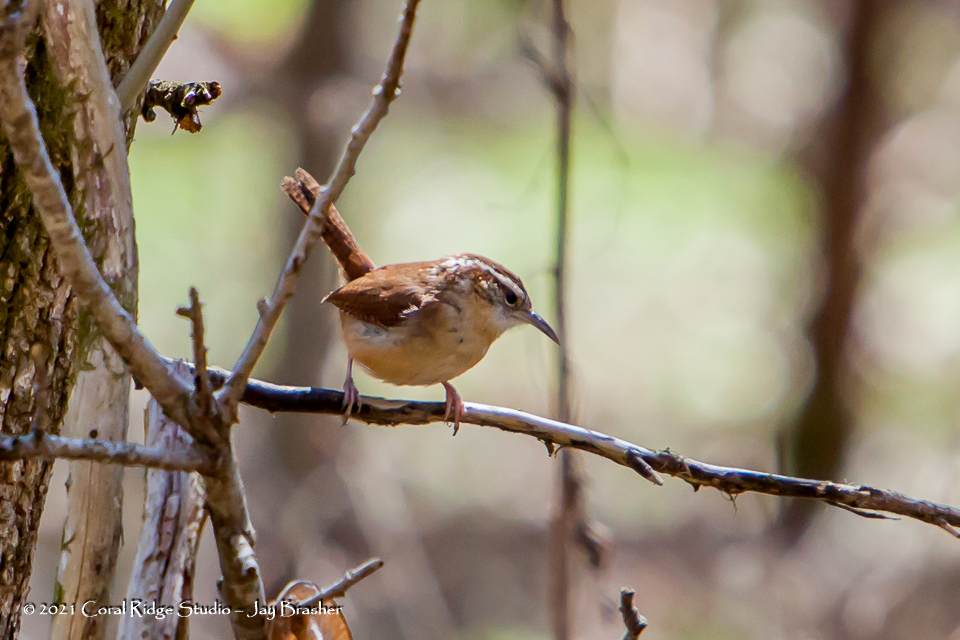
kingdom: Animalia
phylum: Chordata
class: Aves
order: Passeriformes
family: Troglodytidae
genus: Thryothorus
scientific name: Thryothorus ludovicianus
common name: Carolina wren
